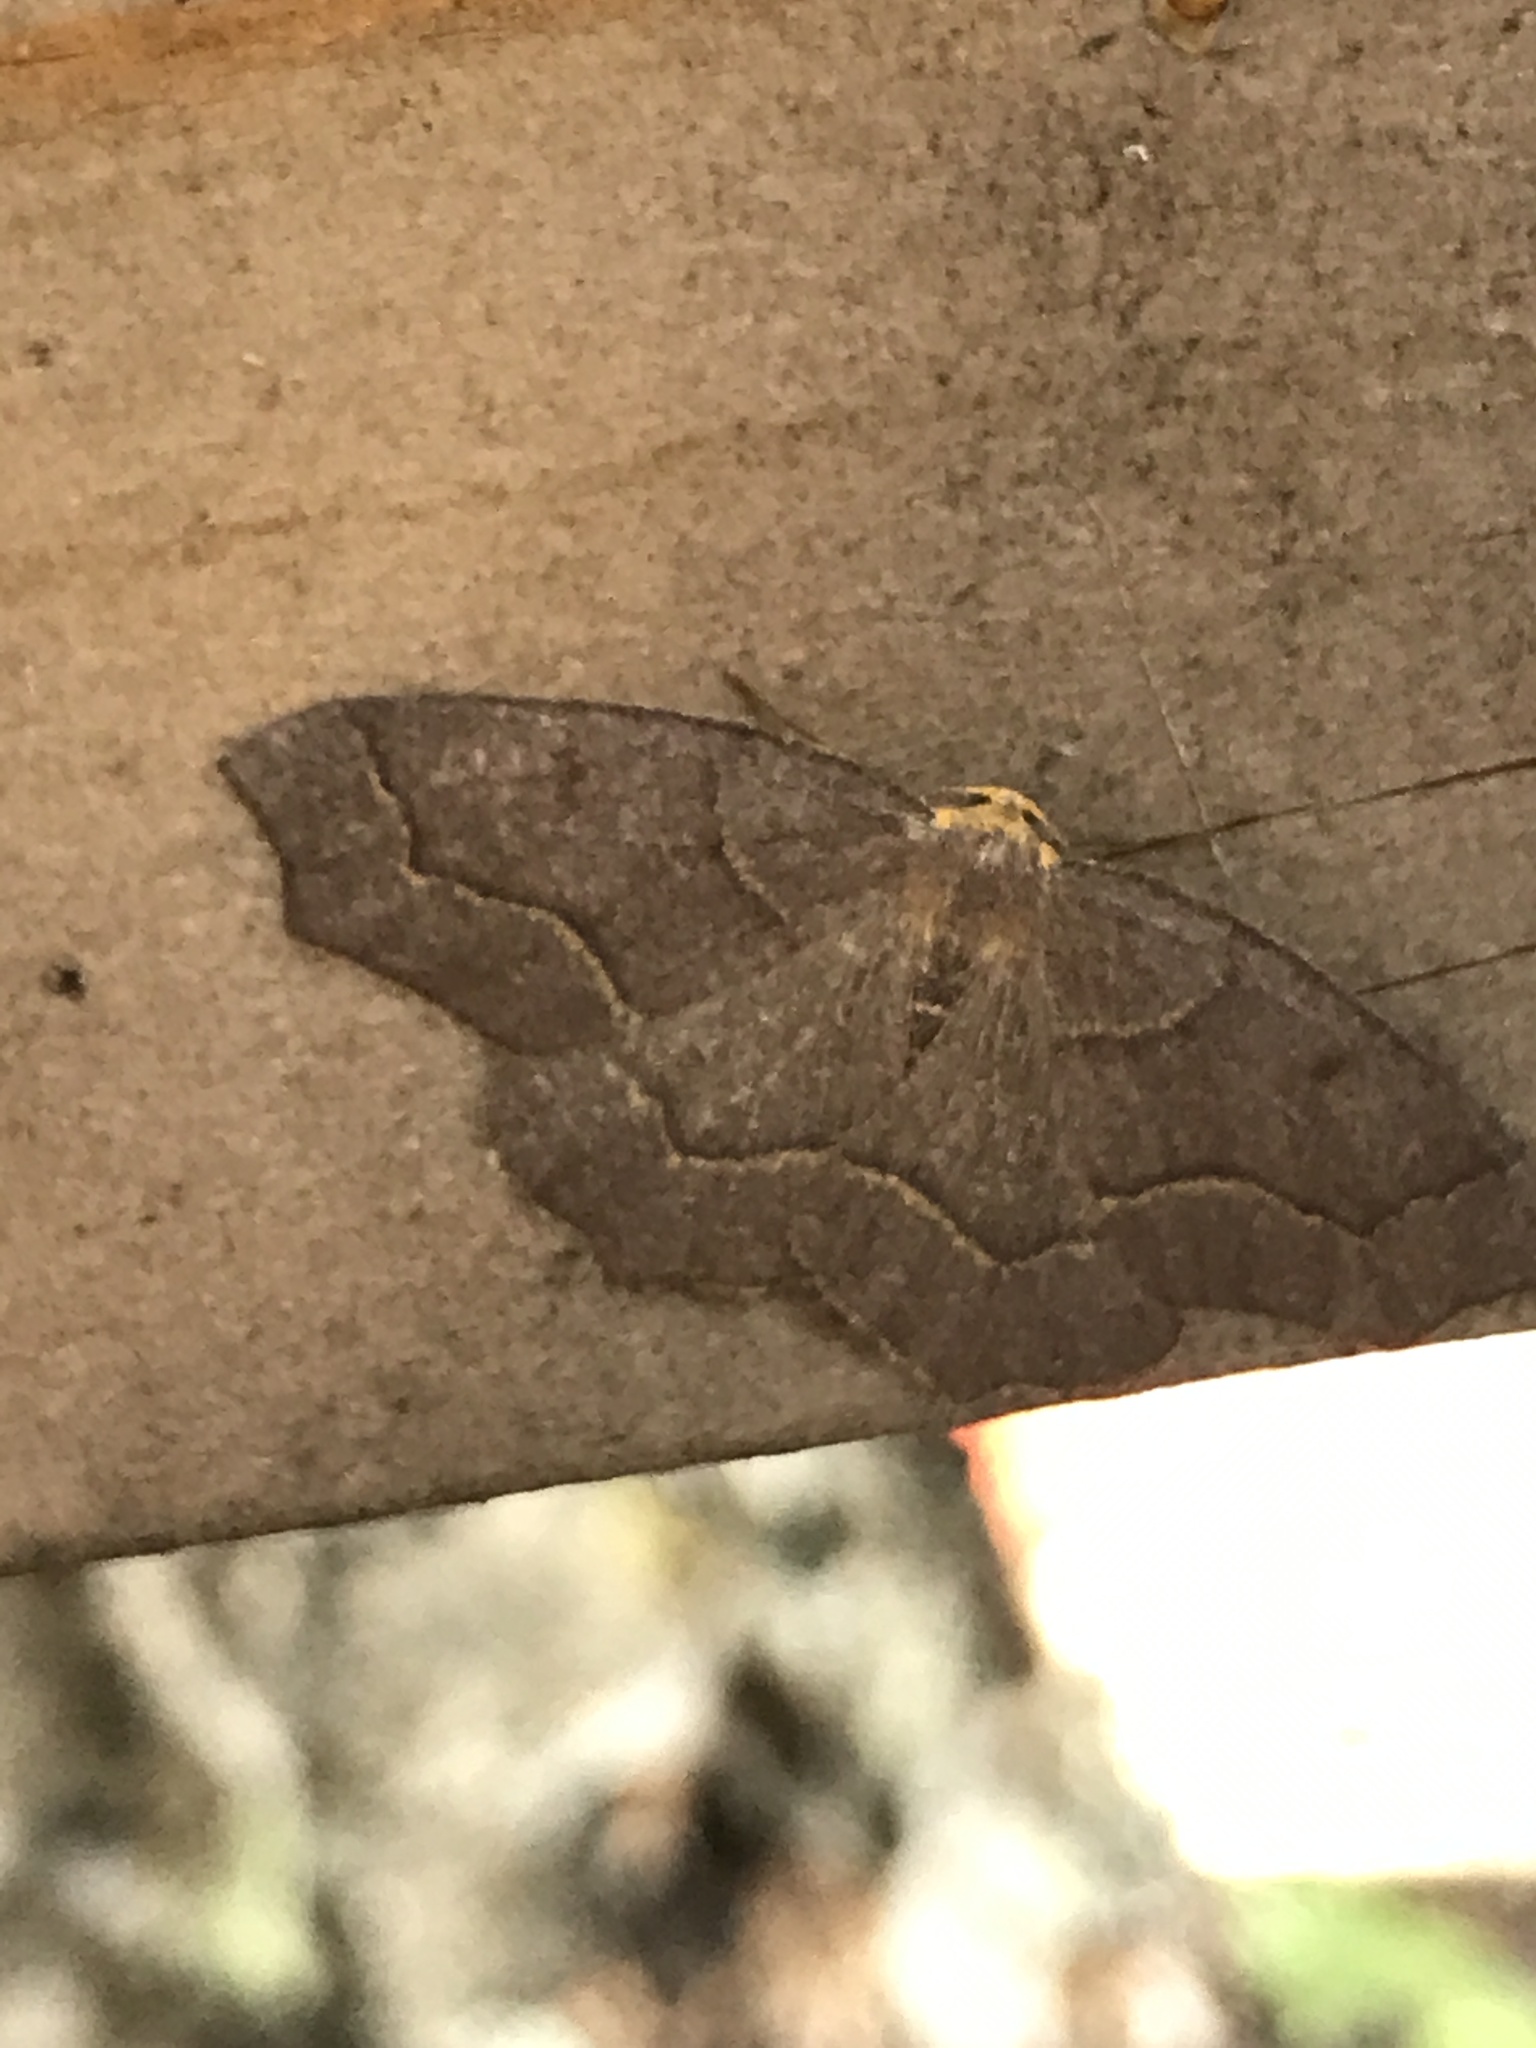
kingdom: Animalia
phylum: Arthropoda
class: Insecta
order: Lepidoptera
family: Geometridae
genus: Lambdina
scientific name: Lambdina fiscellaria
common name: Hemlock looper
